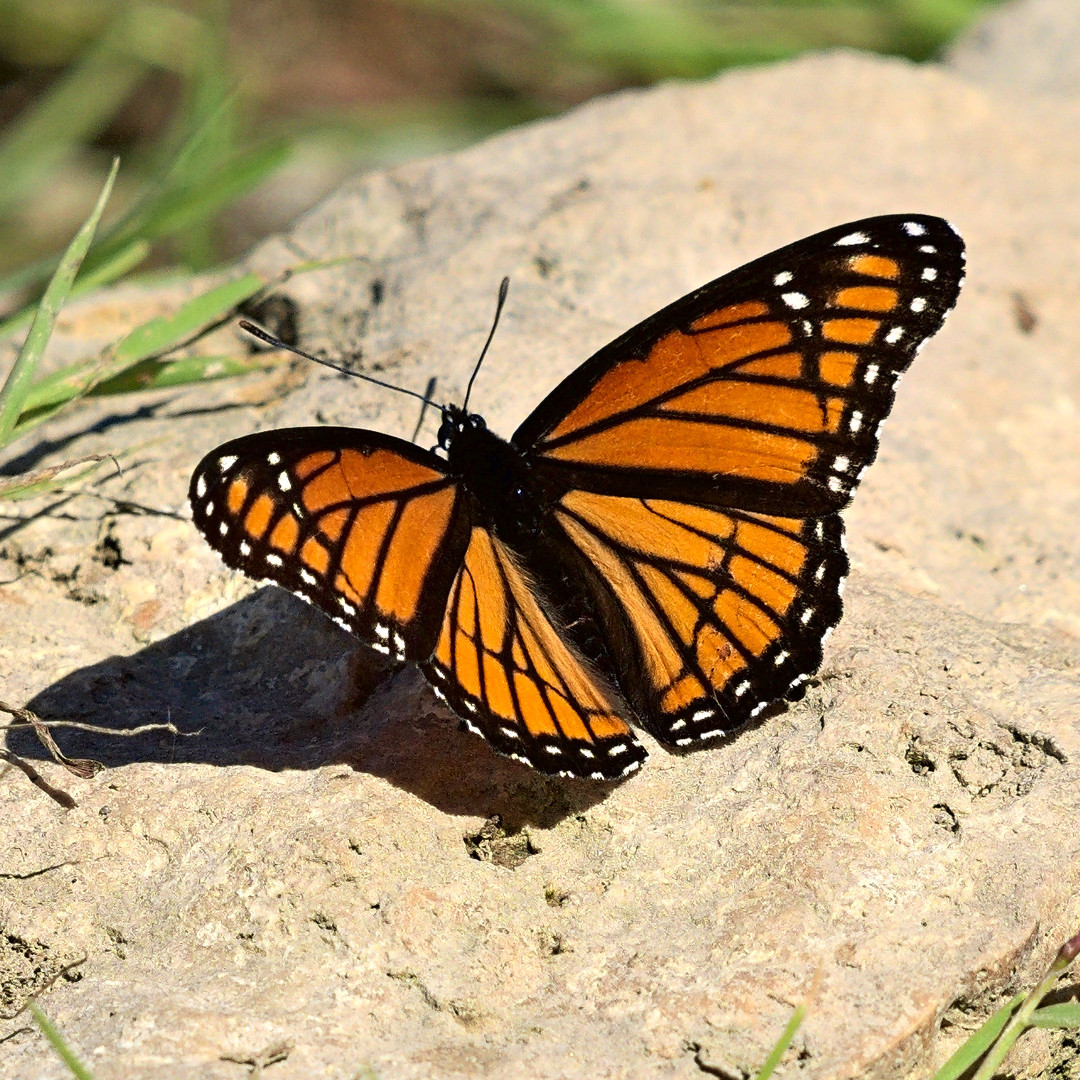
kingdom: Animalia
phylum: Arthropoda
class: Insecta
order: Lepidoptera
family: Nymphalidae
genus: Limenitis
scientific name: Limenitis archippus
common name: Viceroy
